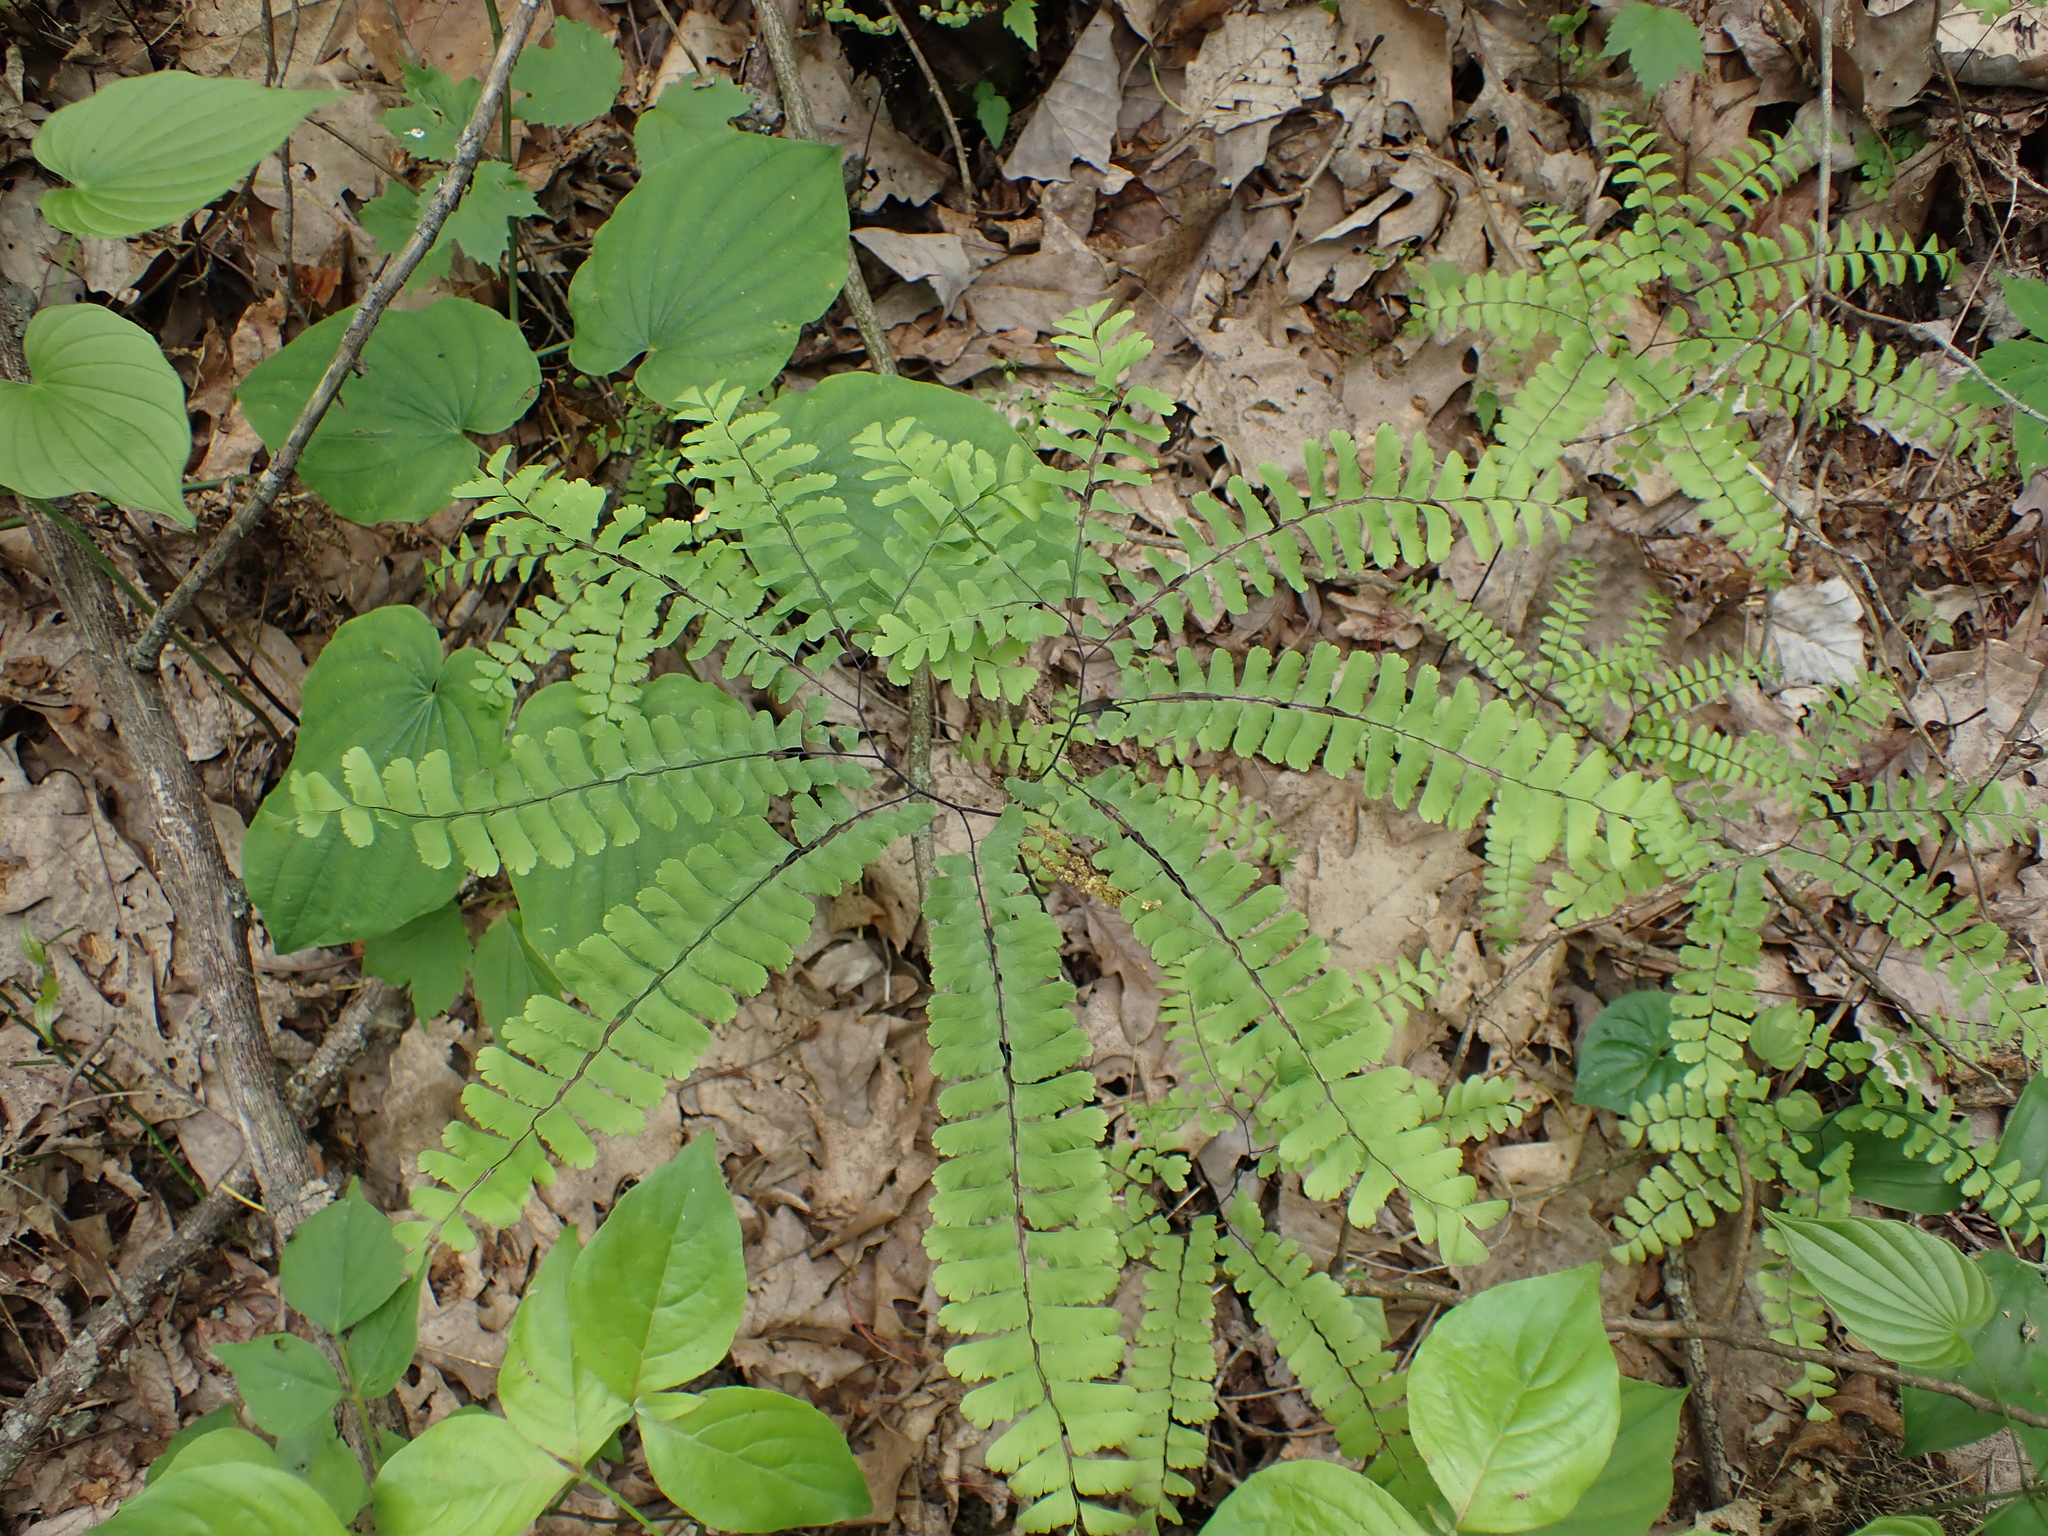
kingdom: Plantae
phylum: Tracheophyta
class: Polypodiopsida
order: Polypodiales
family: Pteridaceae
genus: Adiantum
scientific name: Adiantum pedatum
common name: Five-finger fern
